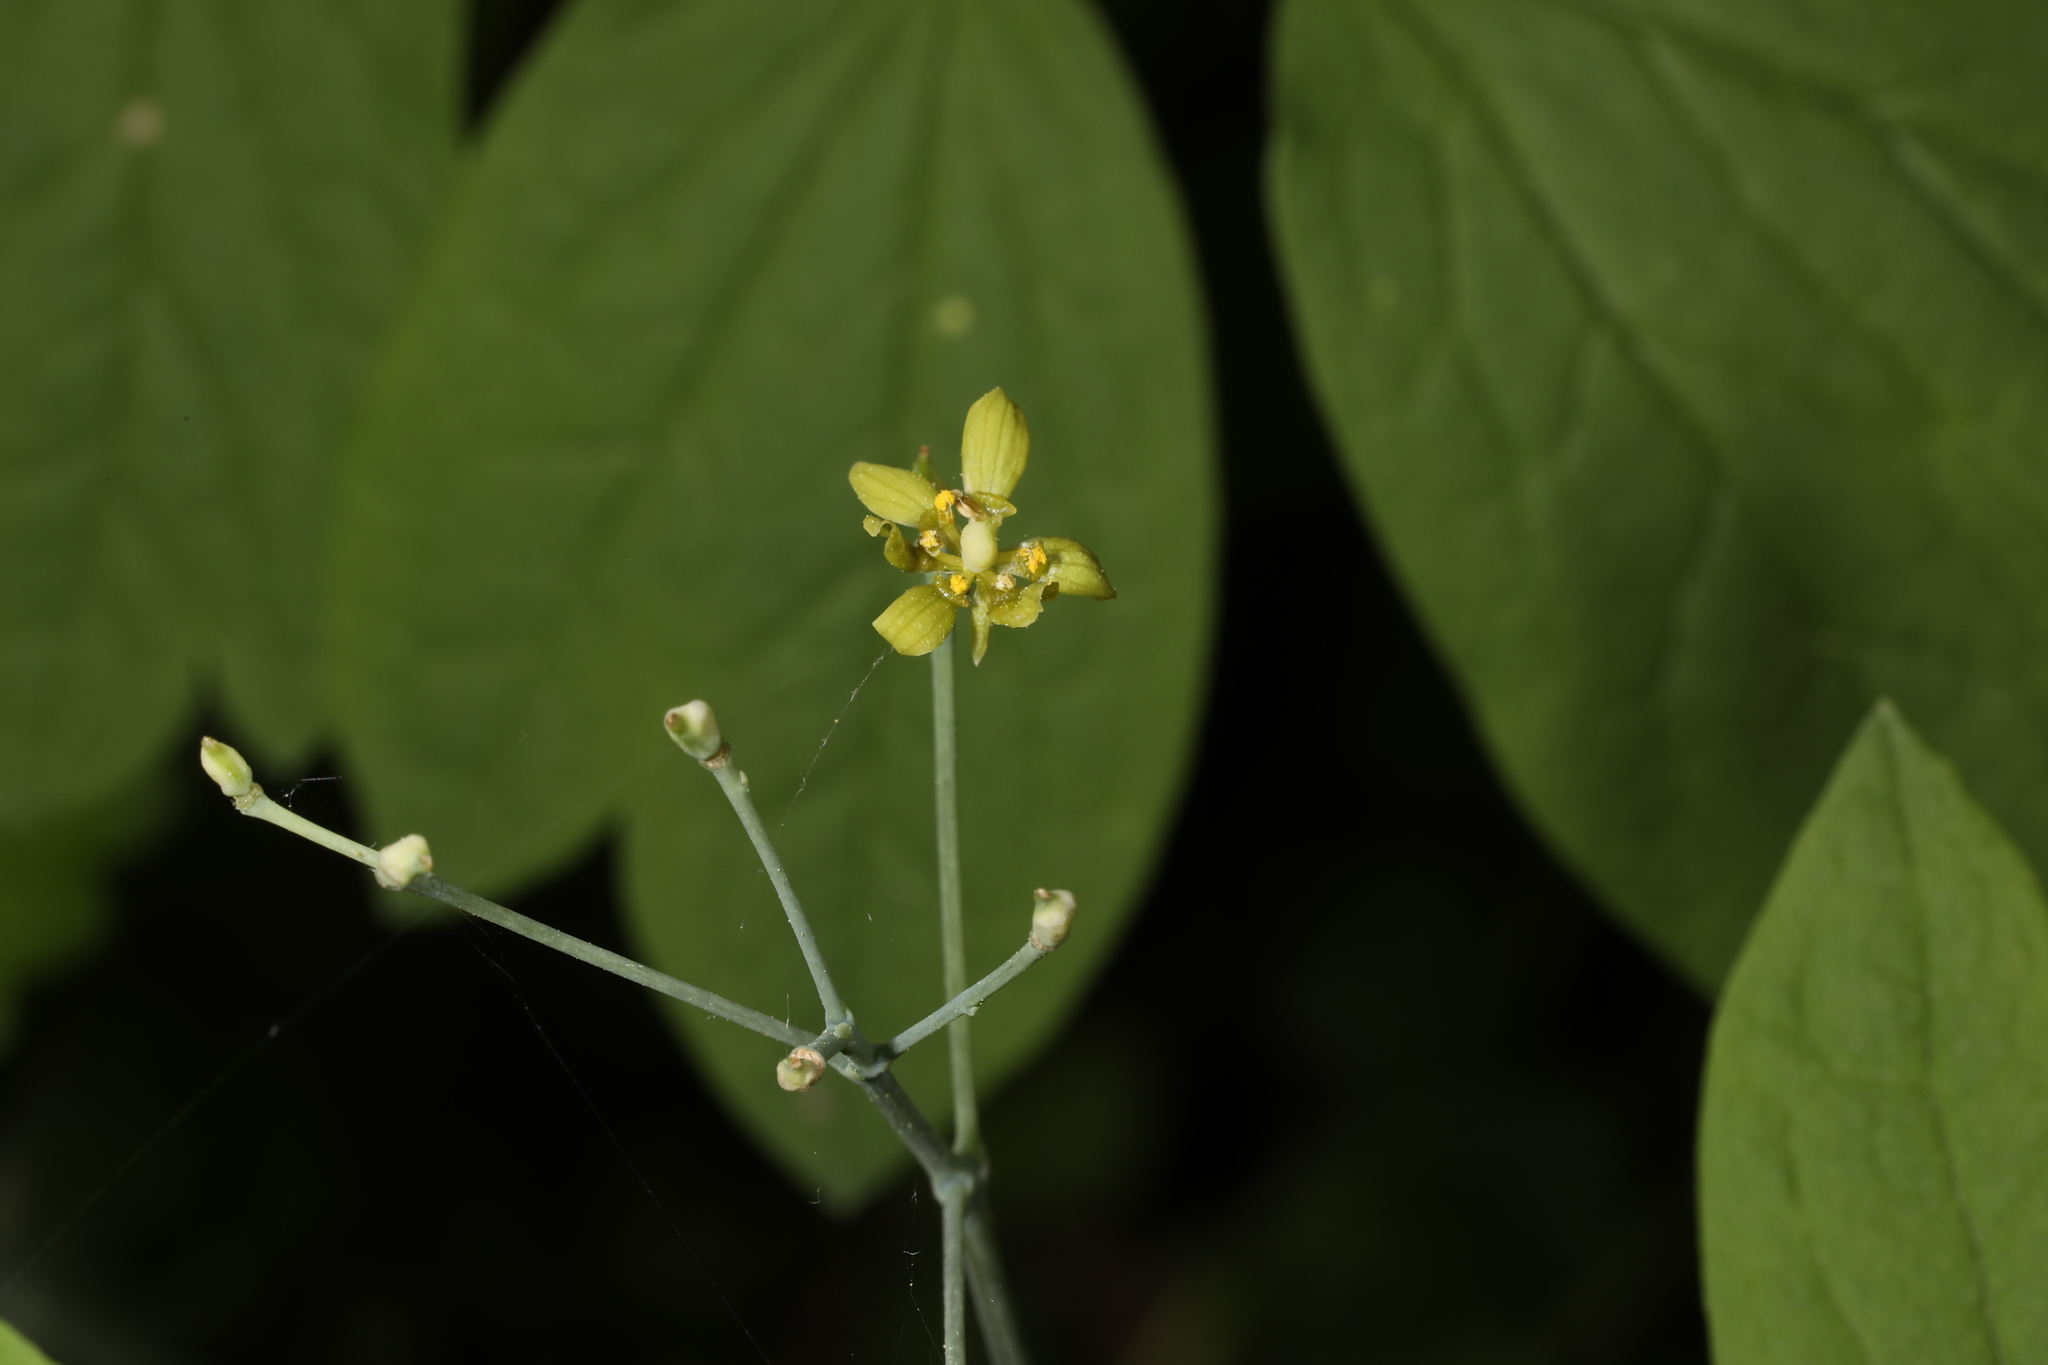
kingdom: Plantae
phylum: Tracheophyta
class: Magnoliopsida
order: Ranunculales
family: Berberidaceae
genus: Caulophyllum
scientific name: Caulophyllum thalictroides
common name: Blue cohosh
